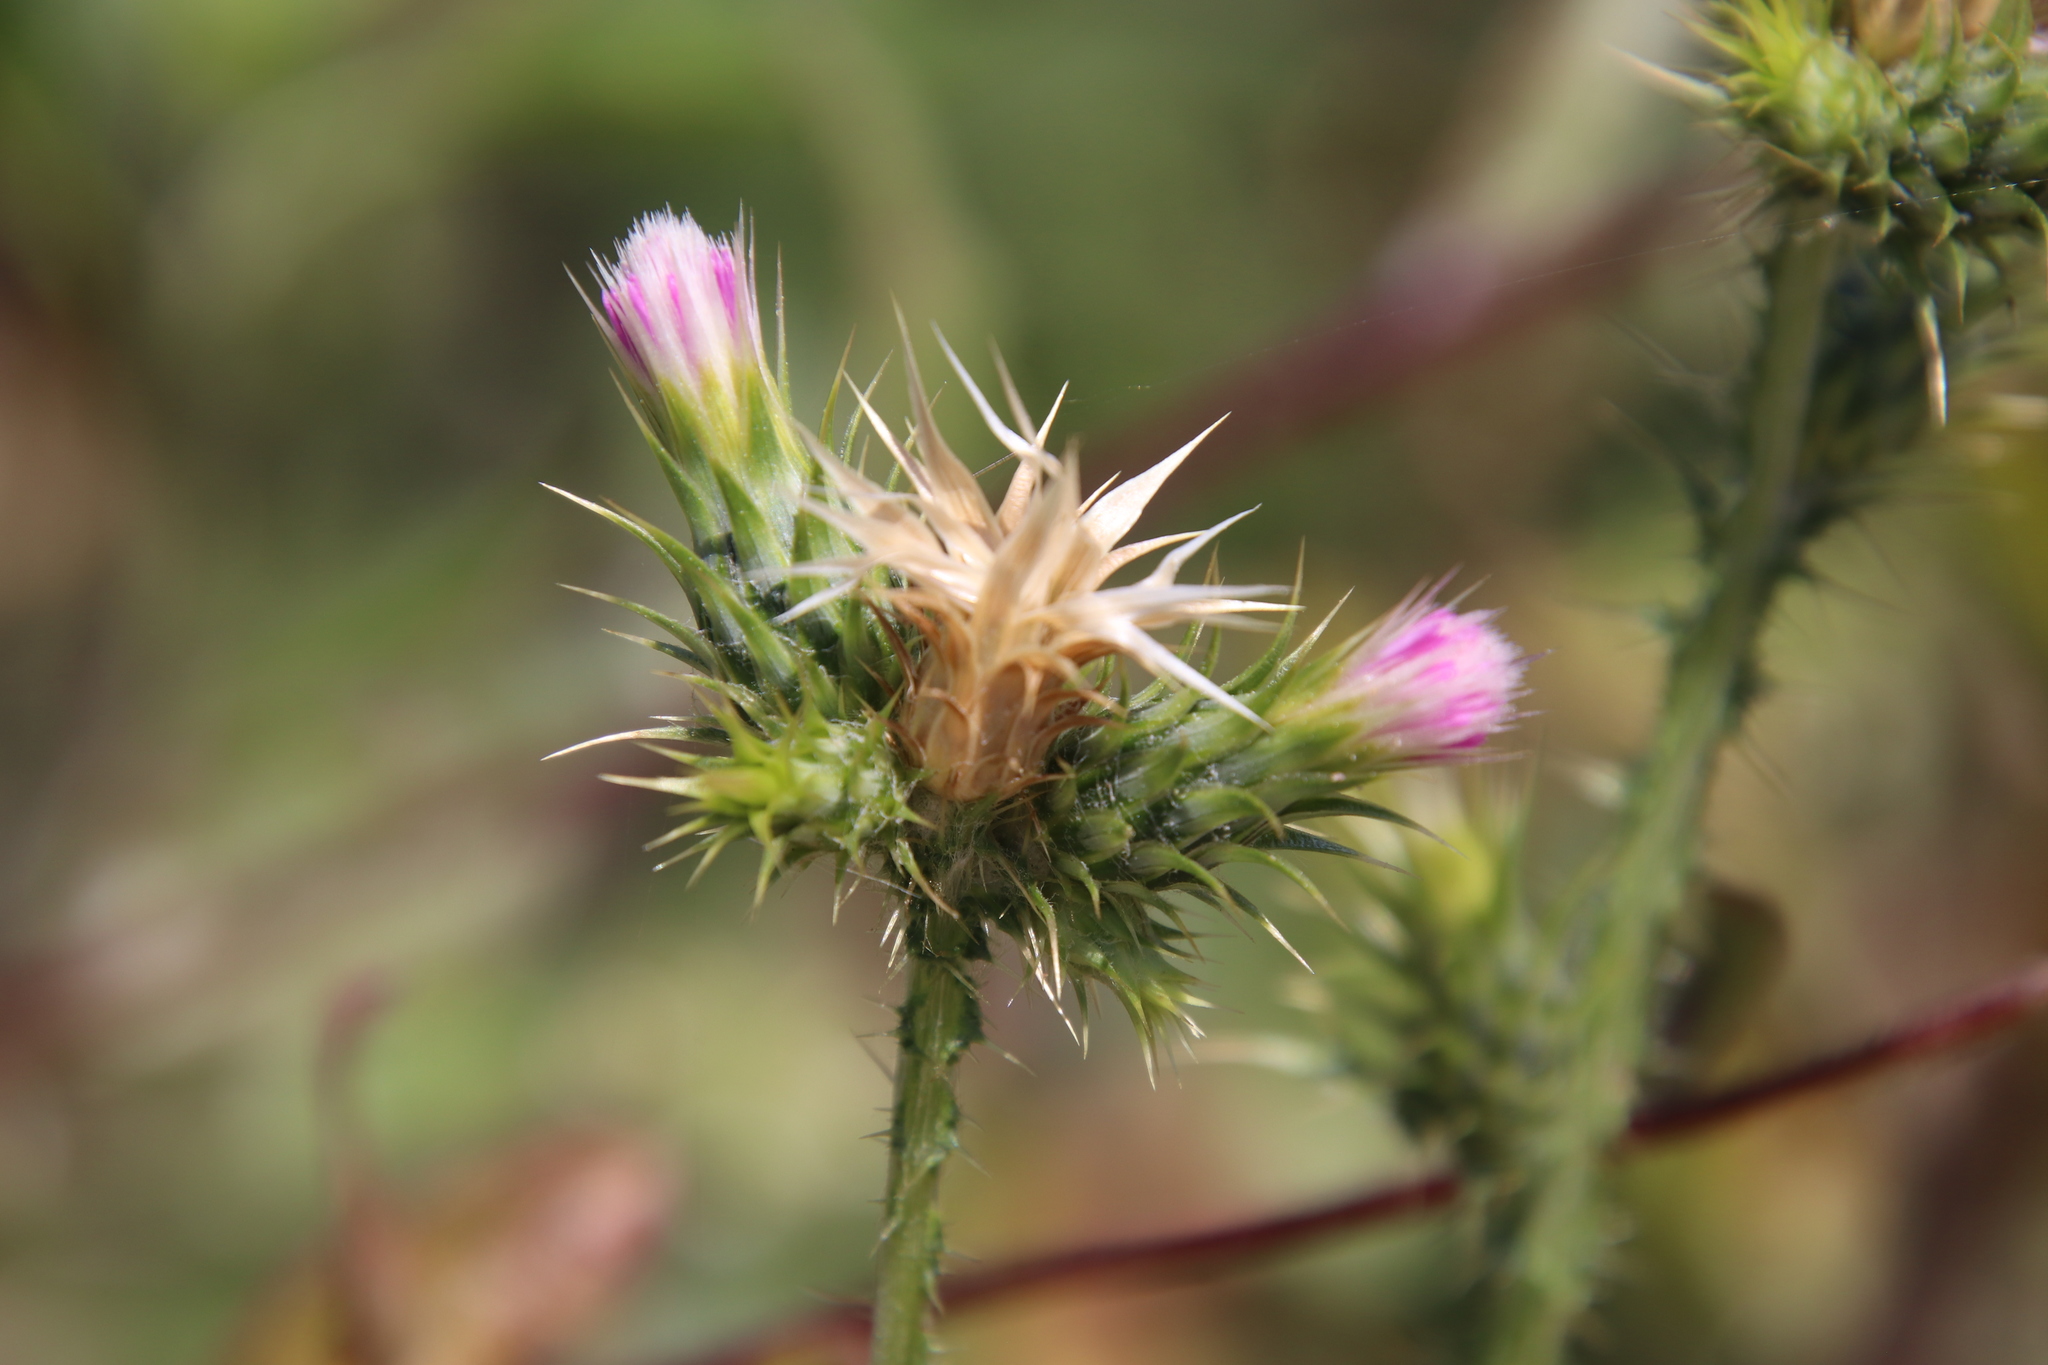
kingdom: Plantae
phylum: Tracheophyta
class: Magnoliopsida
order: Asterales
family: Asteraceae
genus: Carduus
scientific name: Carduus tenuiflorus
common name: Slender thistle
